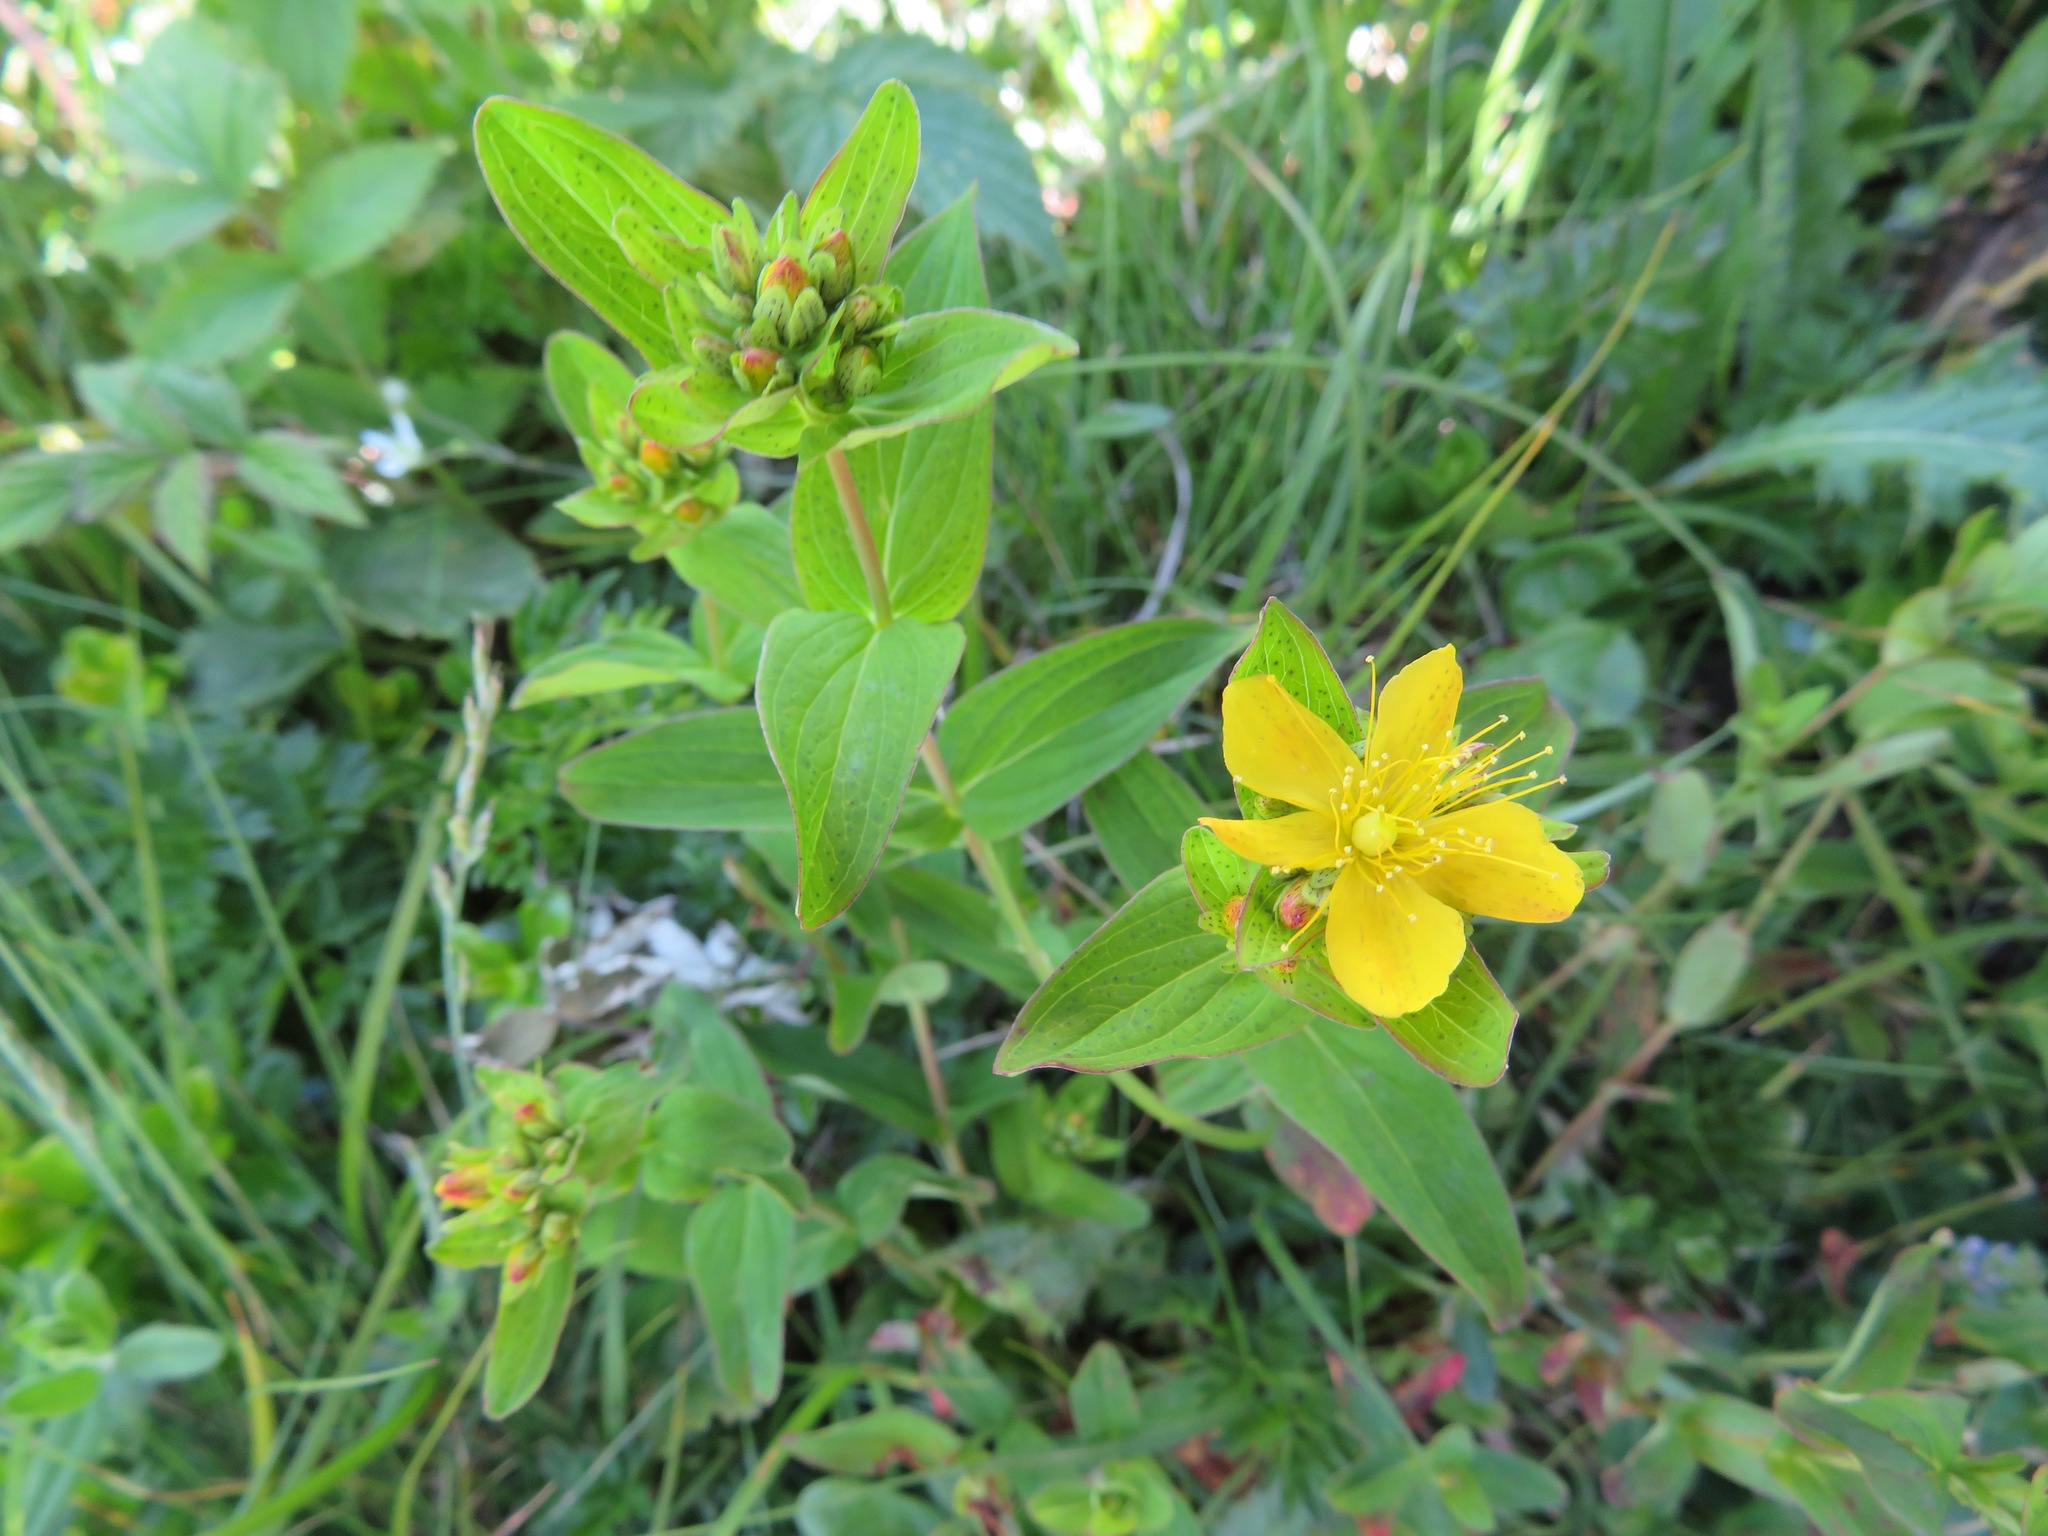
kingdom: Plantae
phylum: Tracheophyta
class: Magnoliopsida
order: Malpighiales
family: Hypericaceae
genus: Hypericum
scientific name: Hypericum erectum
